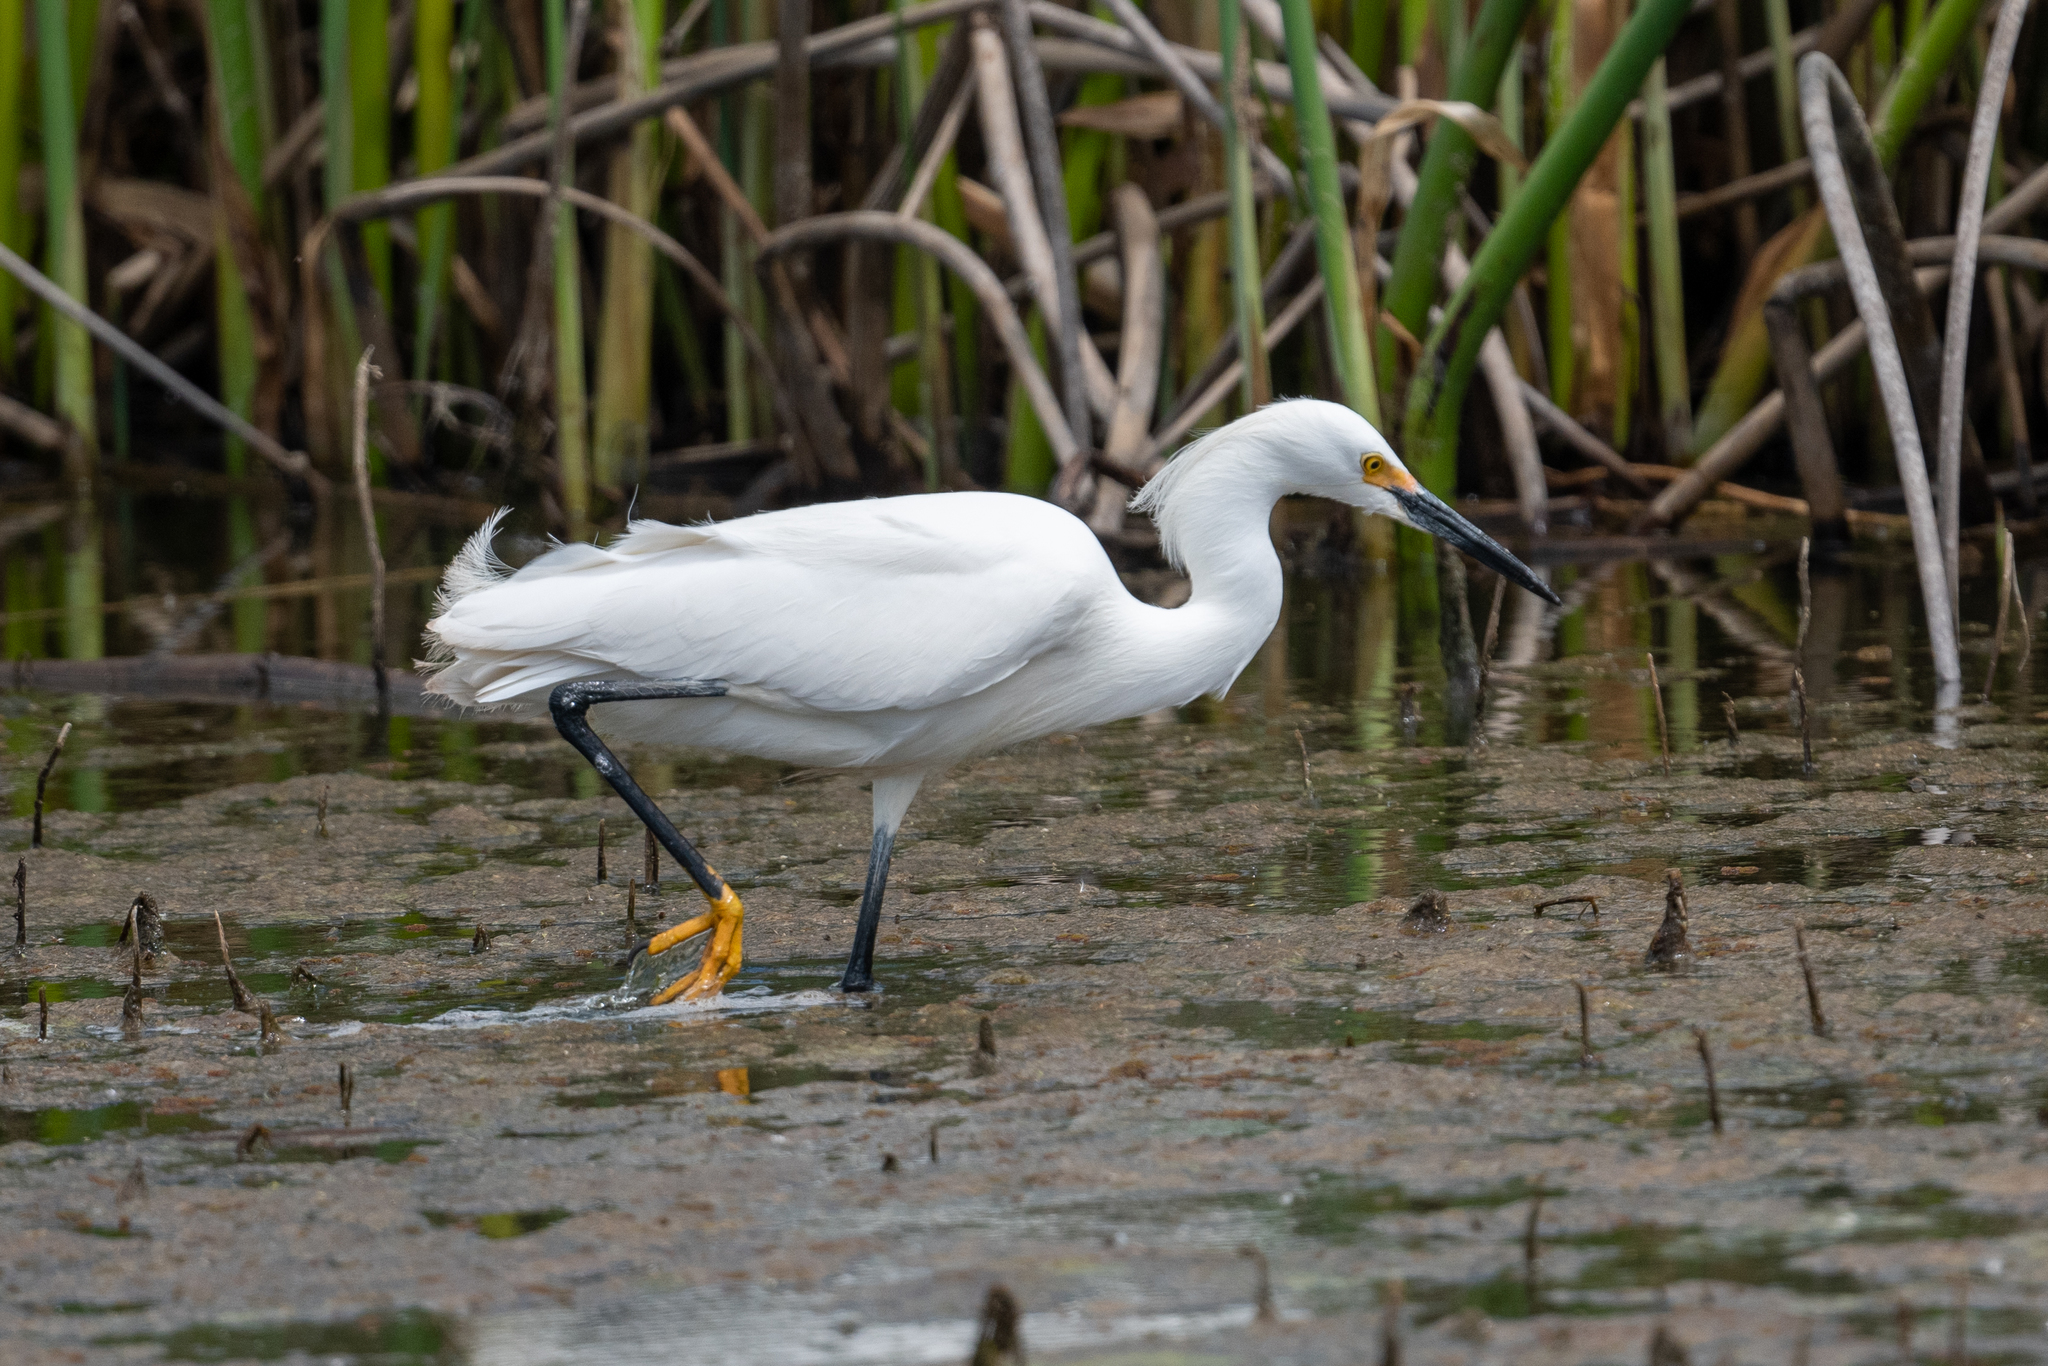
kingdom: Animalia
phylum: Chordata
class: Aves
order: Pelecaniformes
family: Ardeidae
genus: Egretta
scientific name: Egretta thula
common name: Snowy egret
